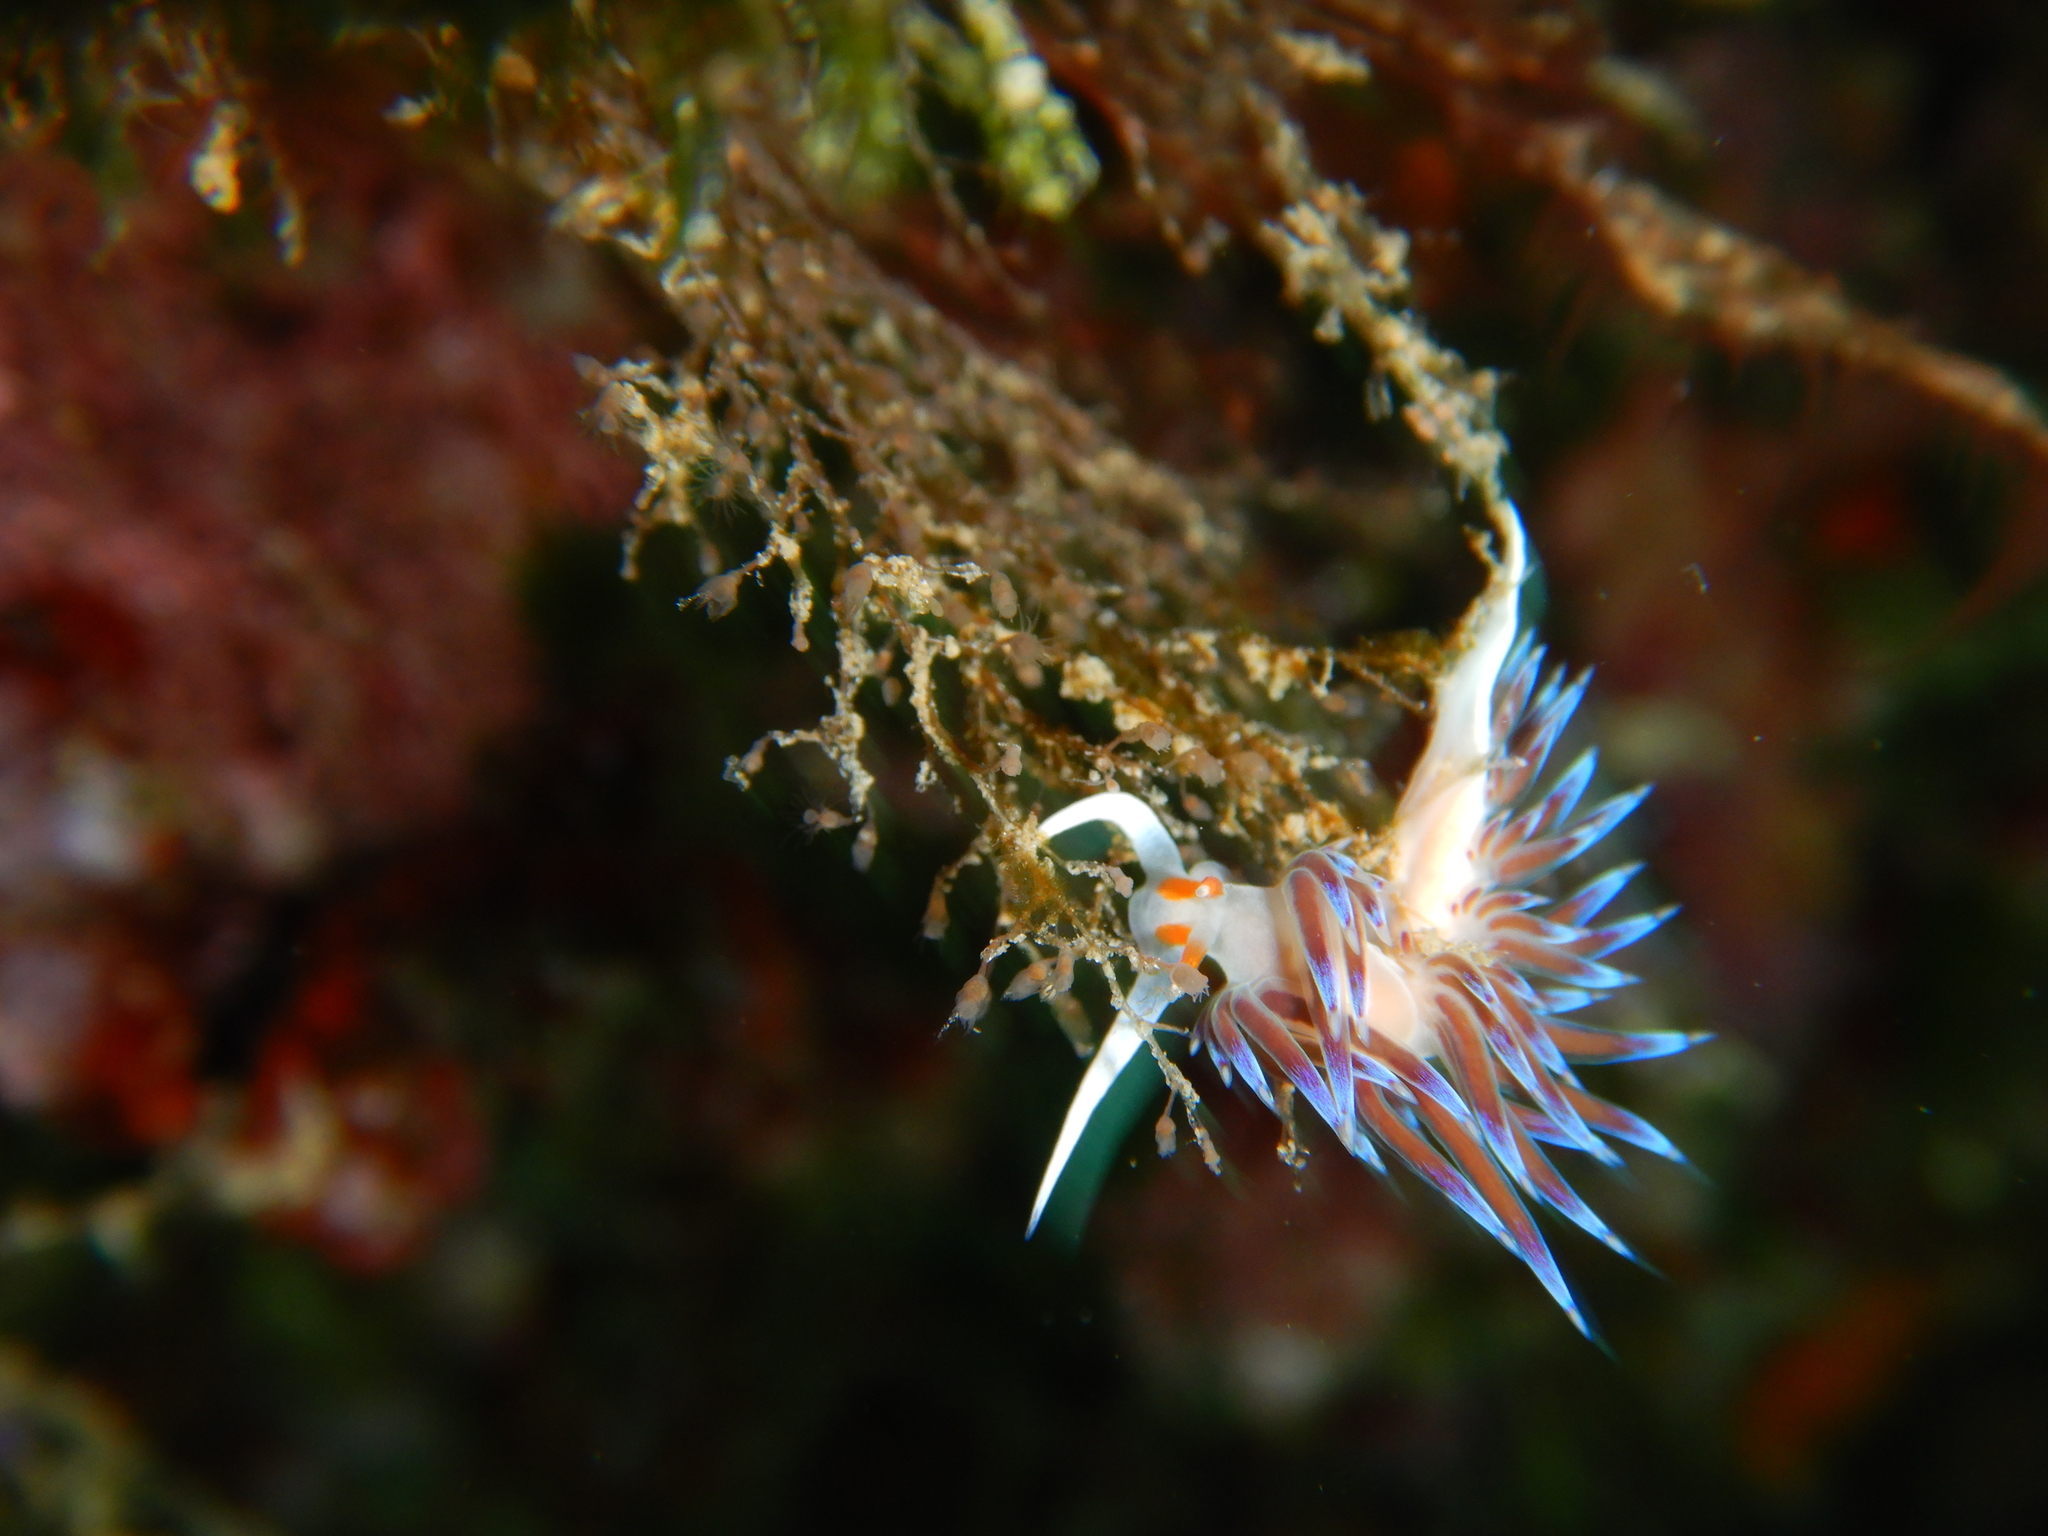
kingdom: Animalia
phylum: Mollusca
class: Gastropoda
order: Nudibranchia
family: Facelinidae
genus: Cratena
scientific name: Cratena peregrina
